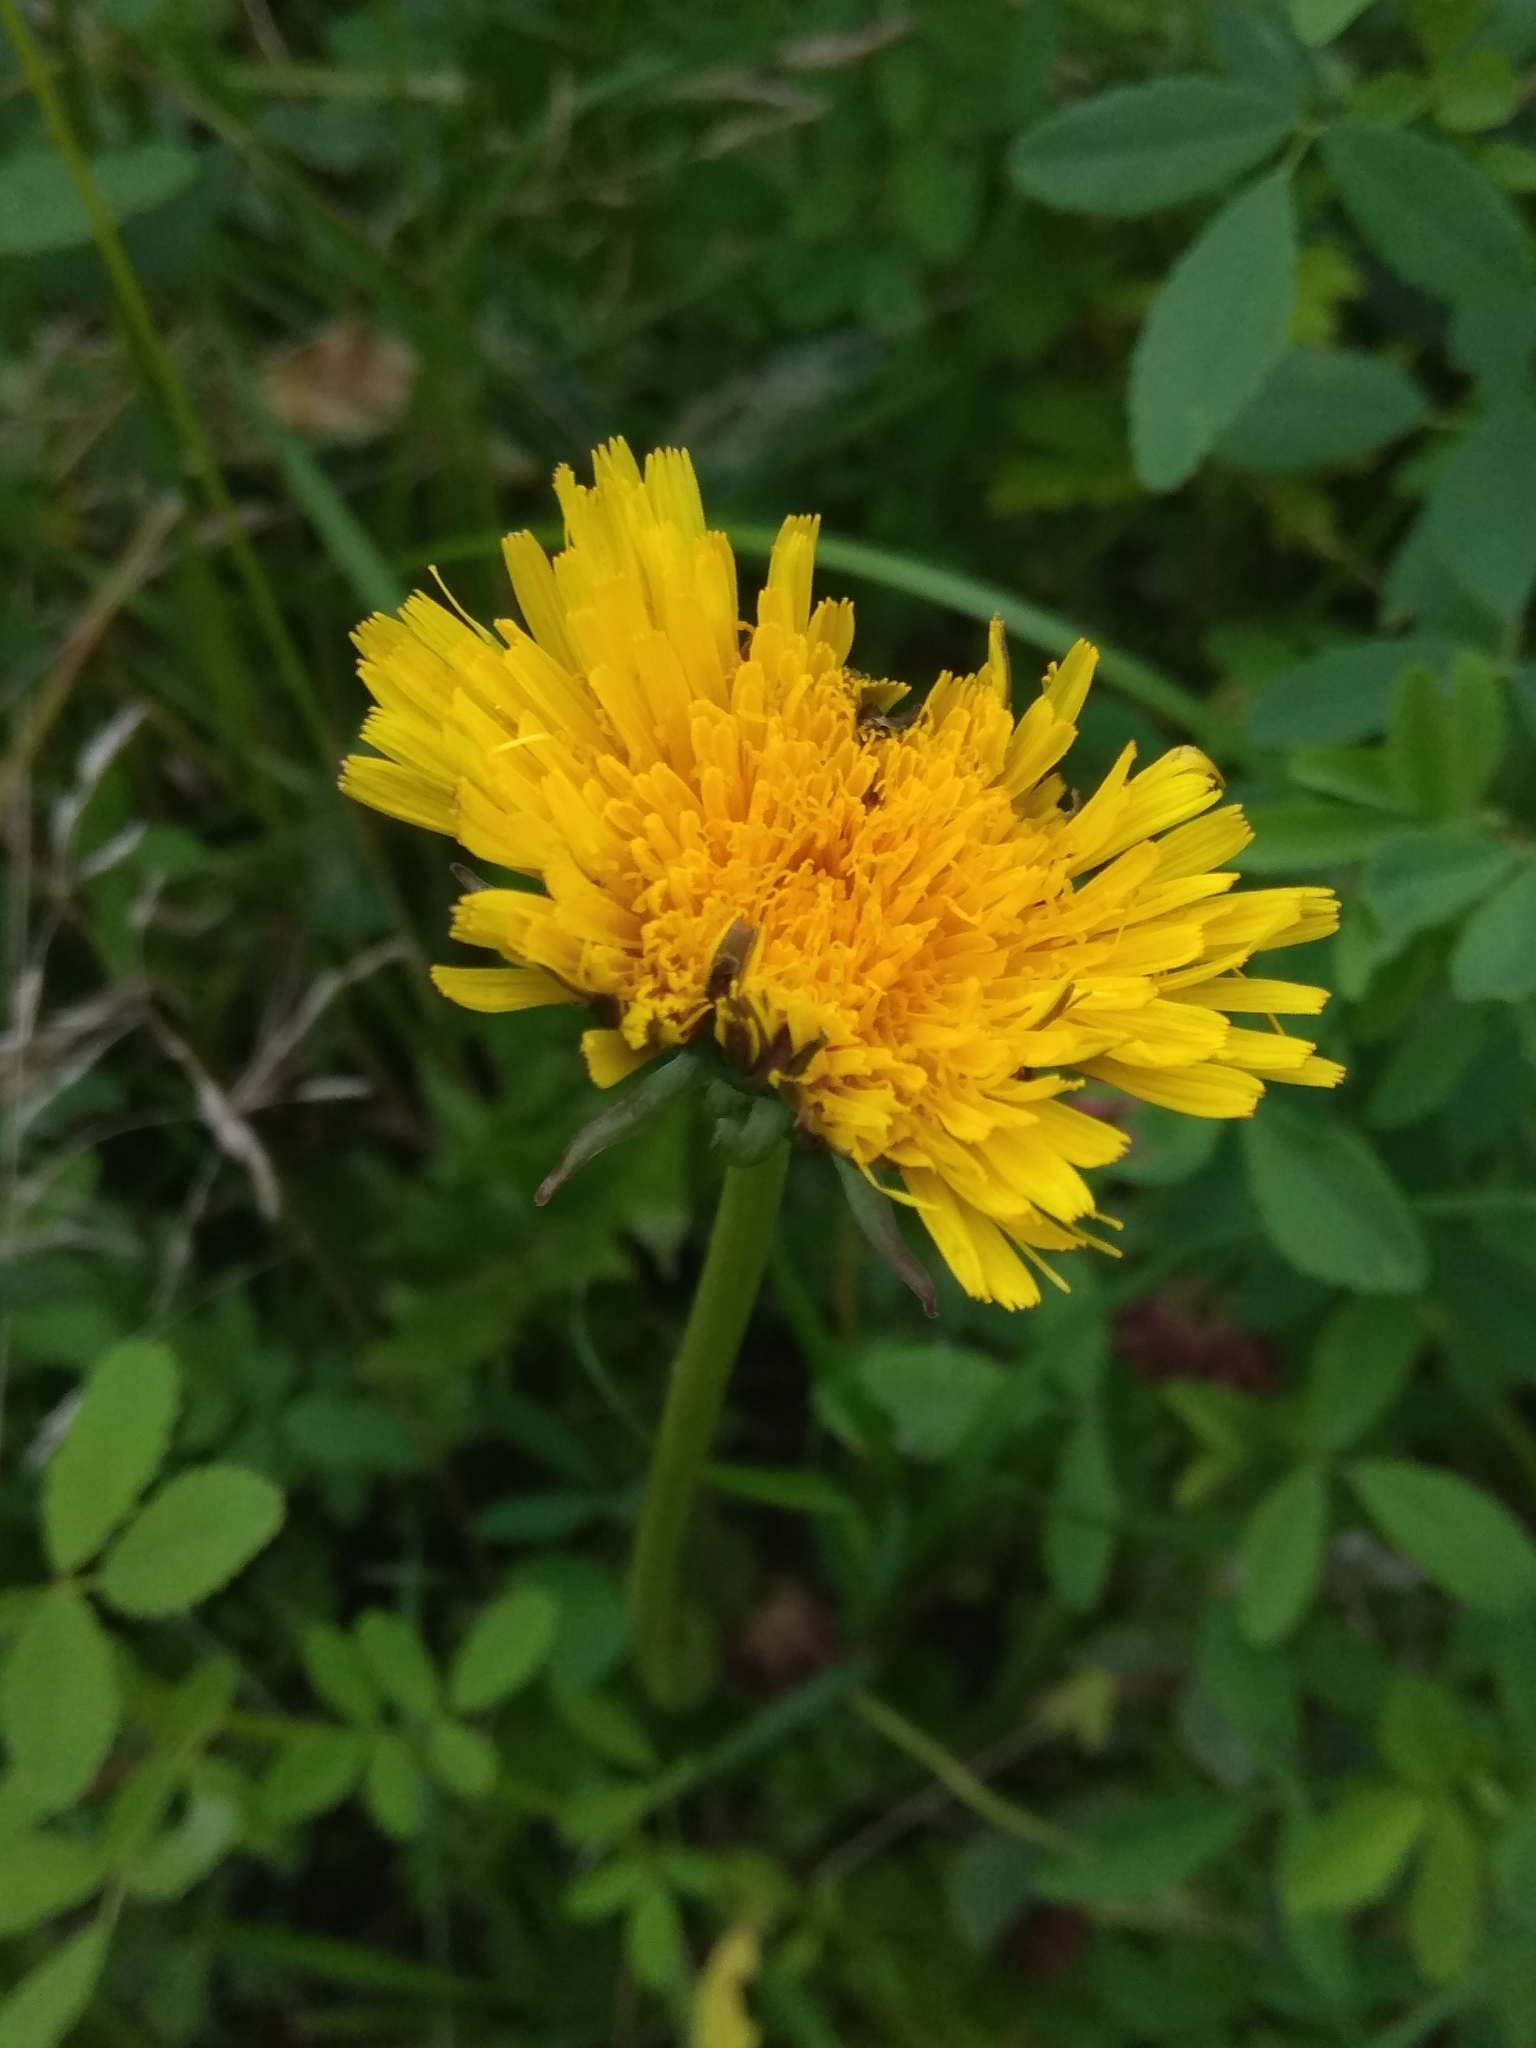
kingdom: Plantae
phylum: Tracheophyta
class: Magnoliopsida
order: Asterales
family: Asteraceae
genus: Taraxacum
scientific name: Taraxacum officinale
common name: Common dandelion
